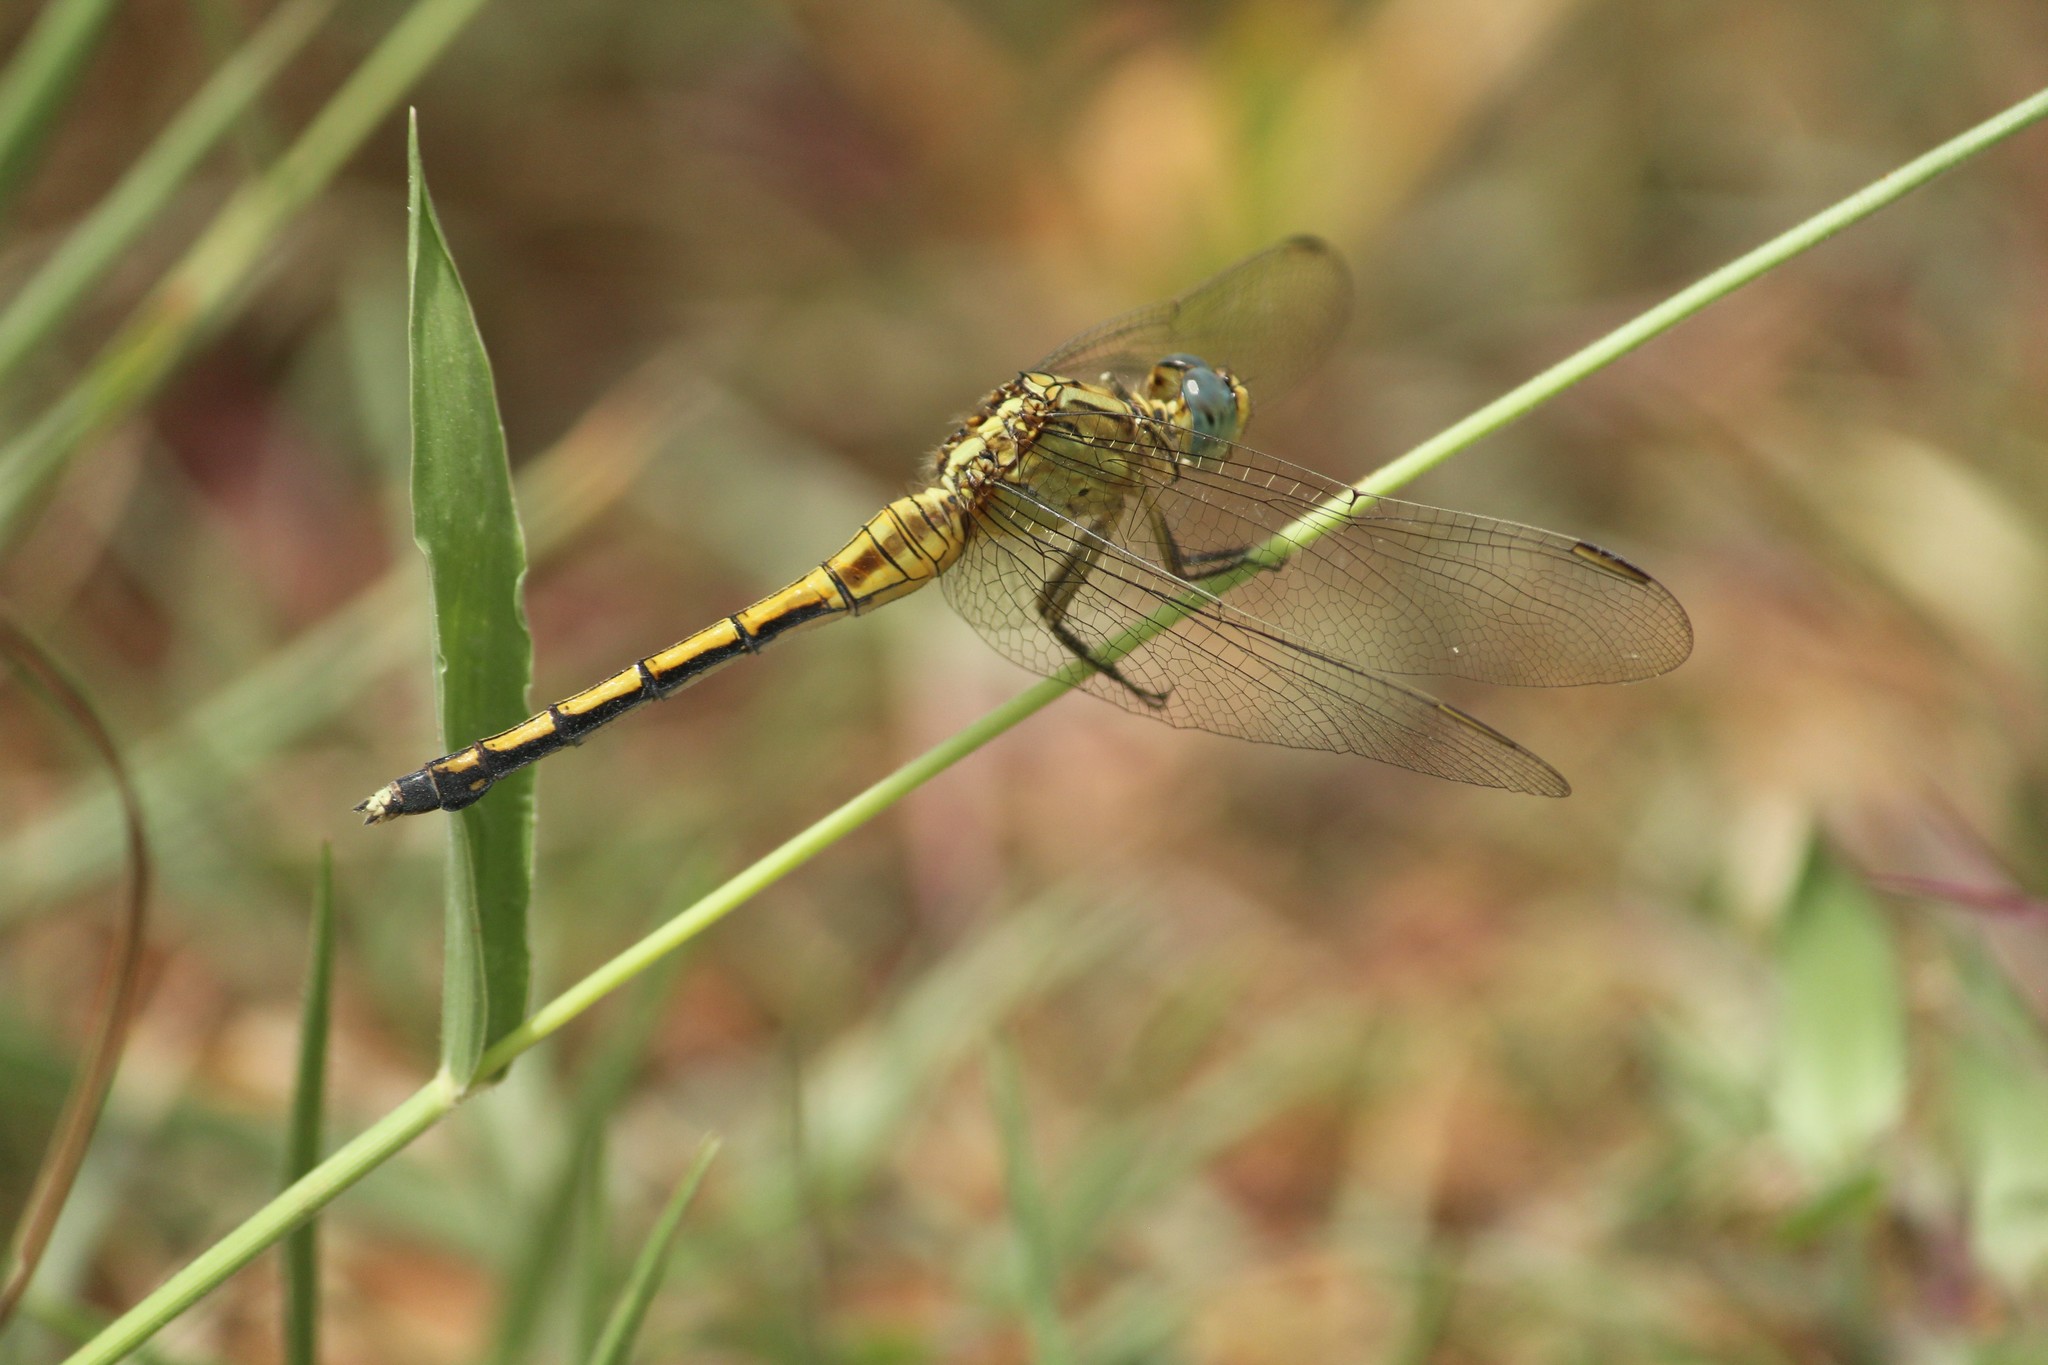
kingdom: Animalia
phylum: Arthropoda
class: Insecta
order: Odonata
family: Libellulidae
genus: Orthetrum
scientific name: Orthetrum luzonicum
